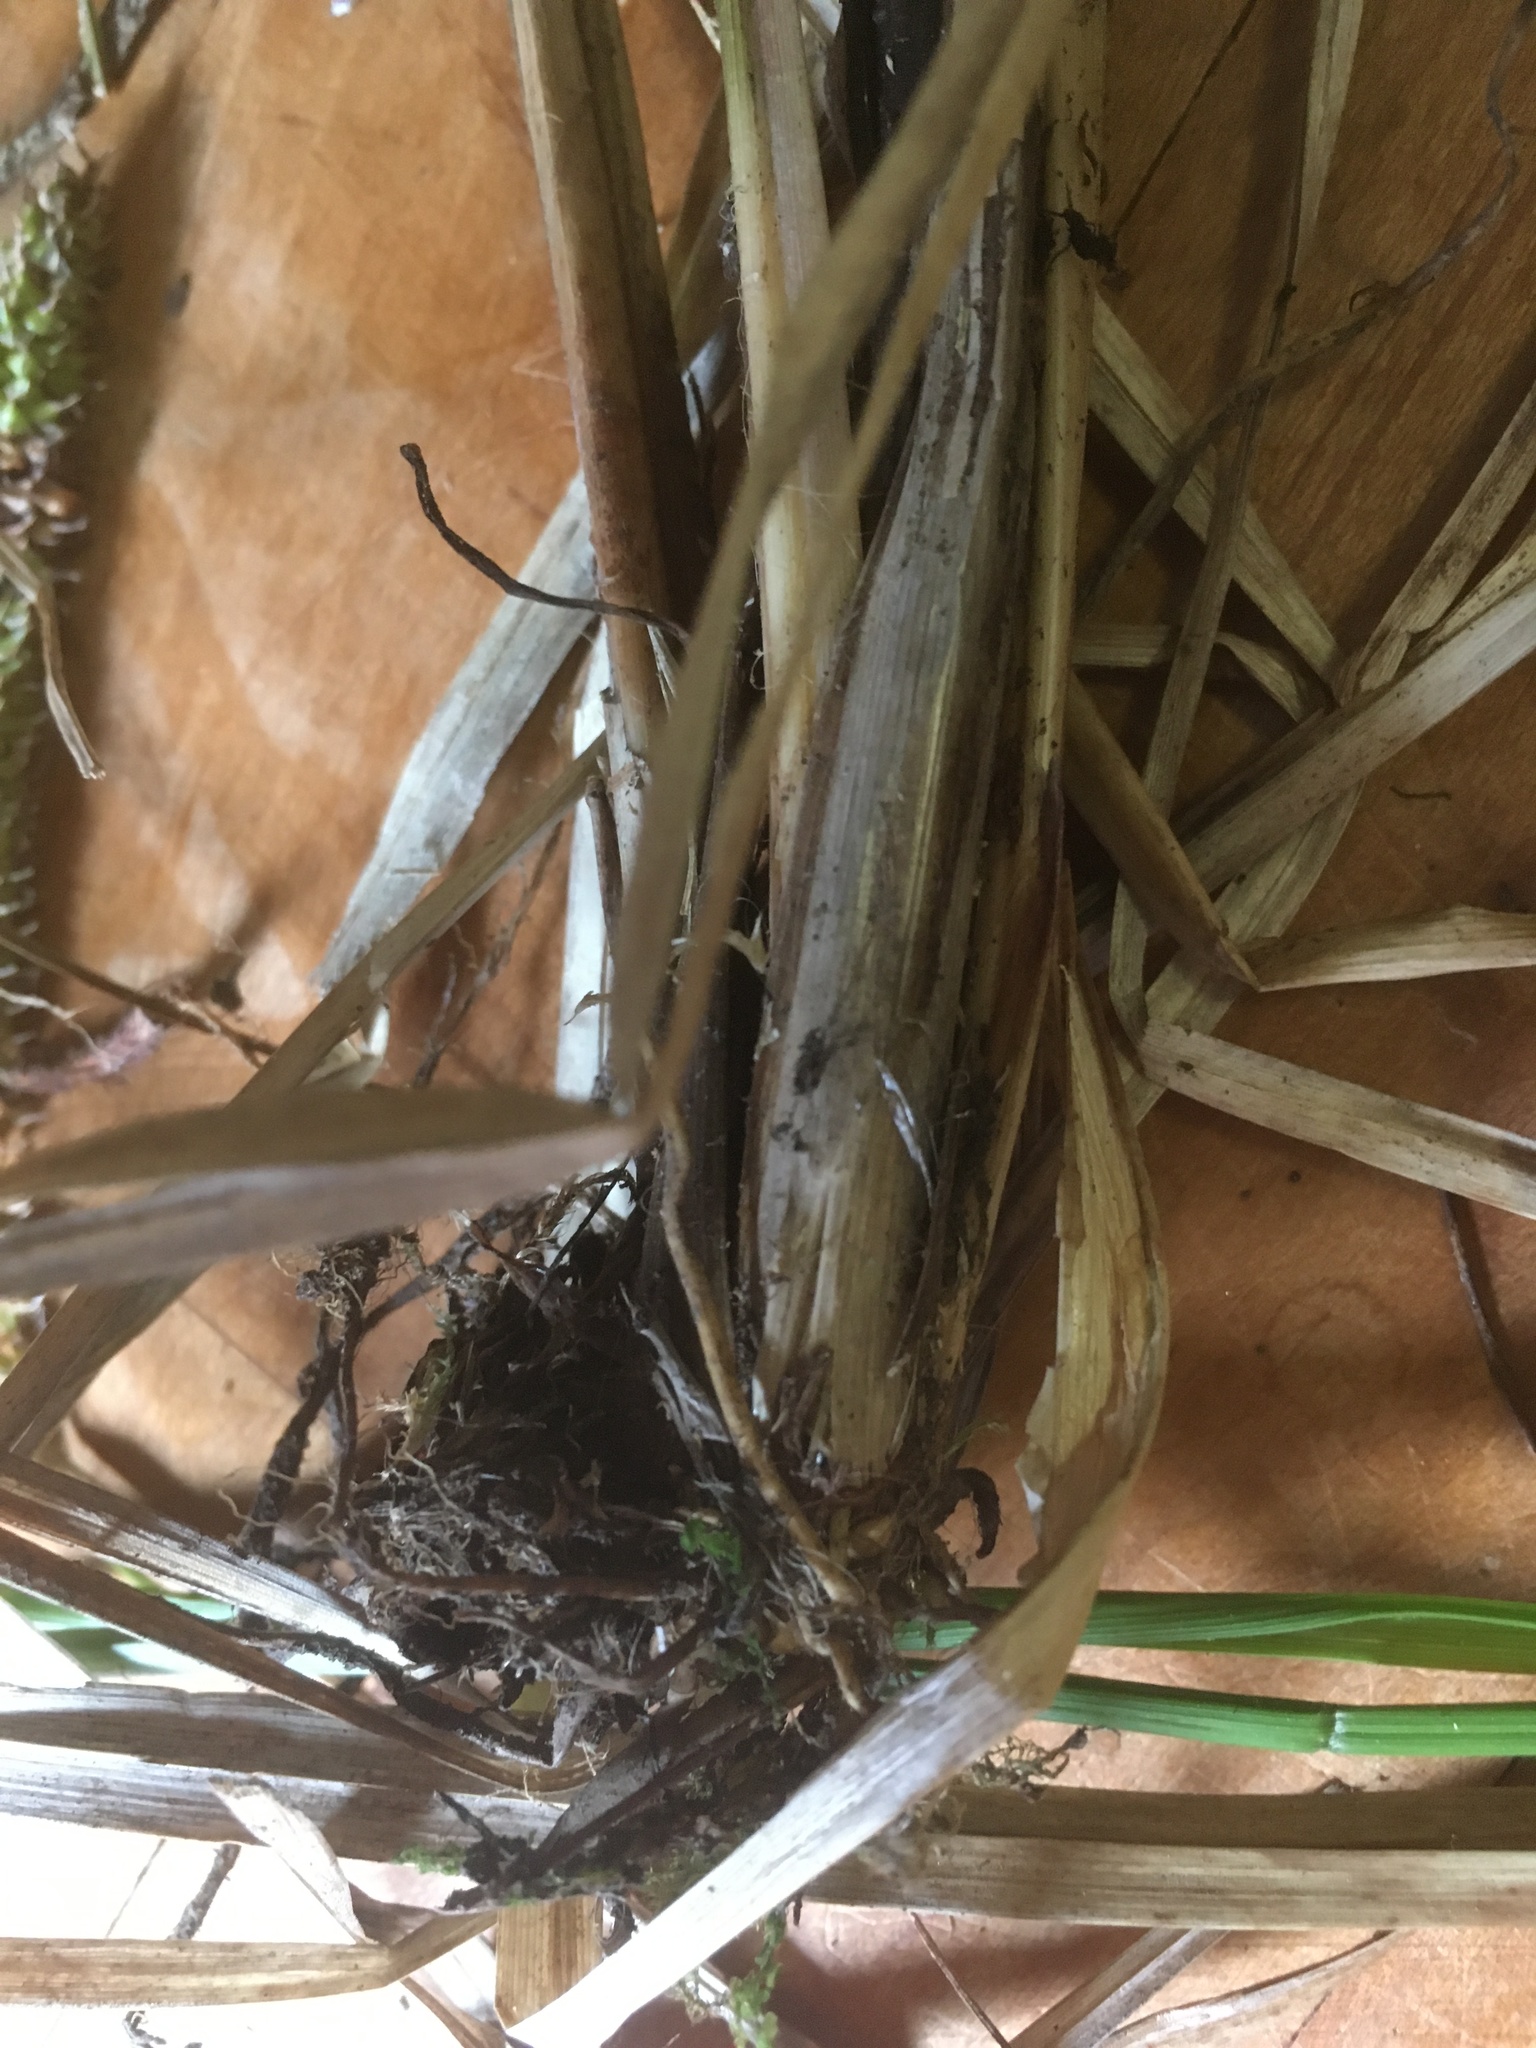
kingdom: Plantae
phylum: Tracheophyta
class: Liliopsida
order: Poales
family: Cyperaceae
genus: Carex
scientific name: Carex utriculata
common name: Beaked sedge
